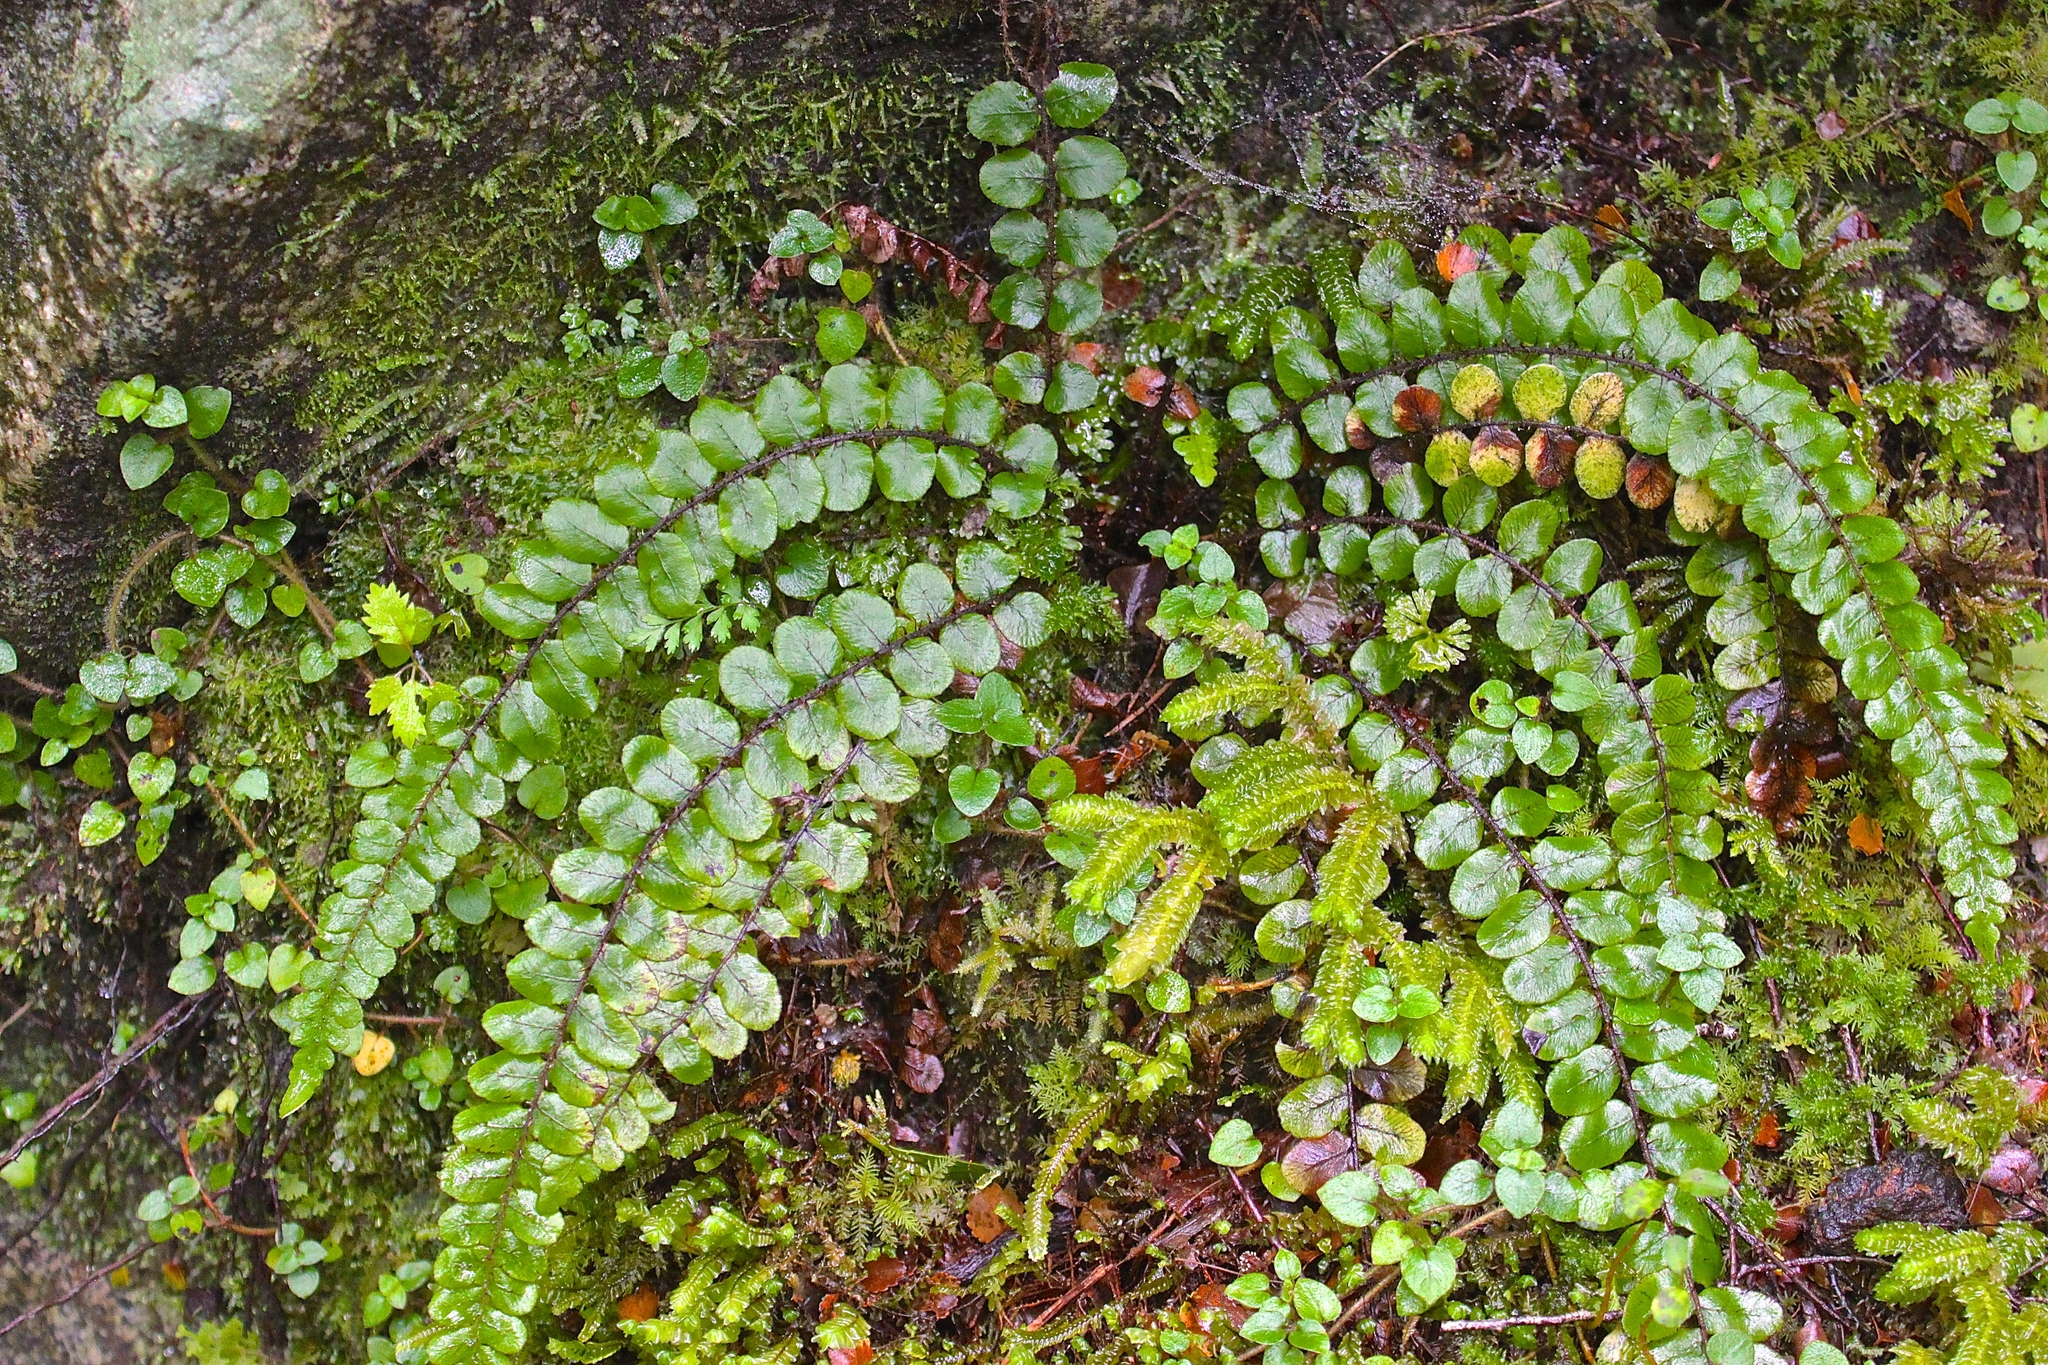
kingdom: Plantae
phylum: Tracheophyta
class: Polypodiopsida
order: Polypodiales
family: Blechnaceae
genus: Cranfillia
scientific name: Cranfillia fluviatilis
